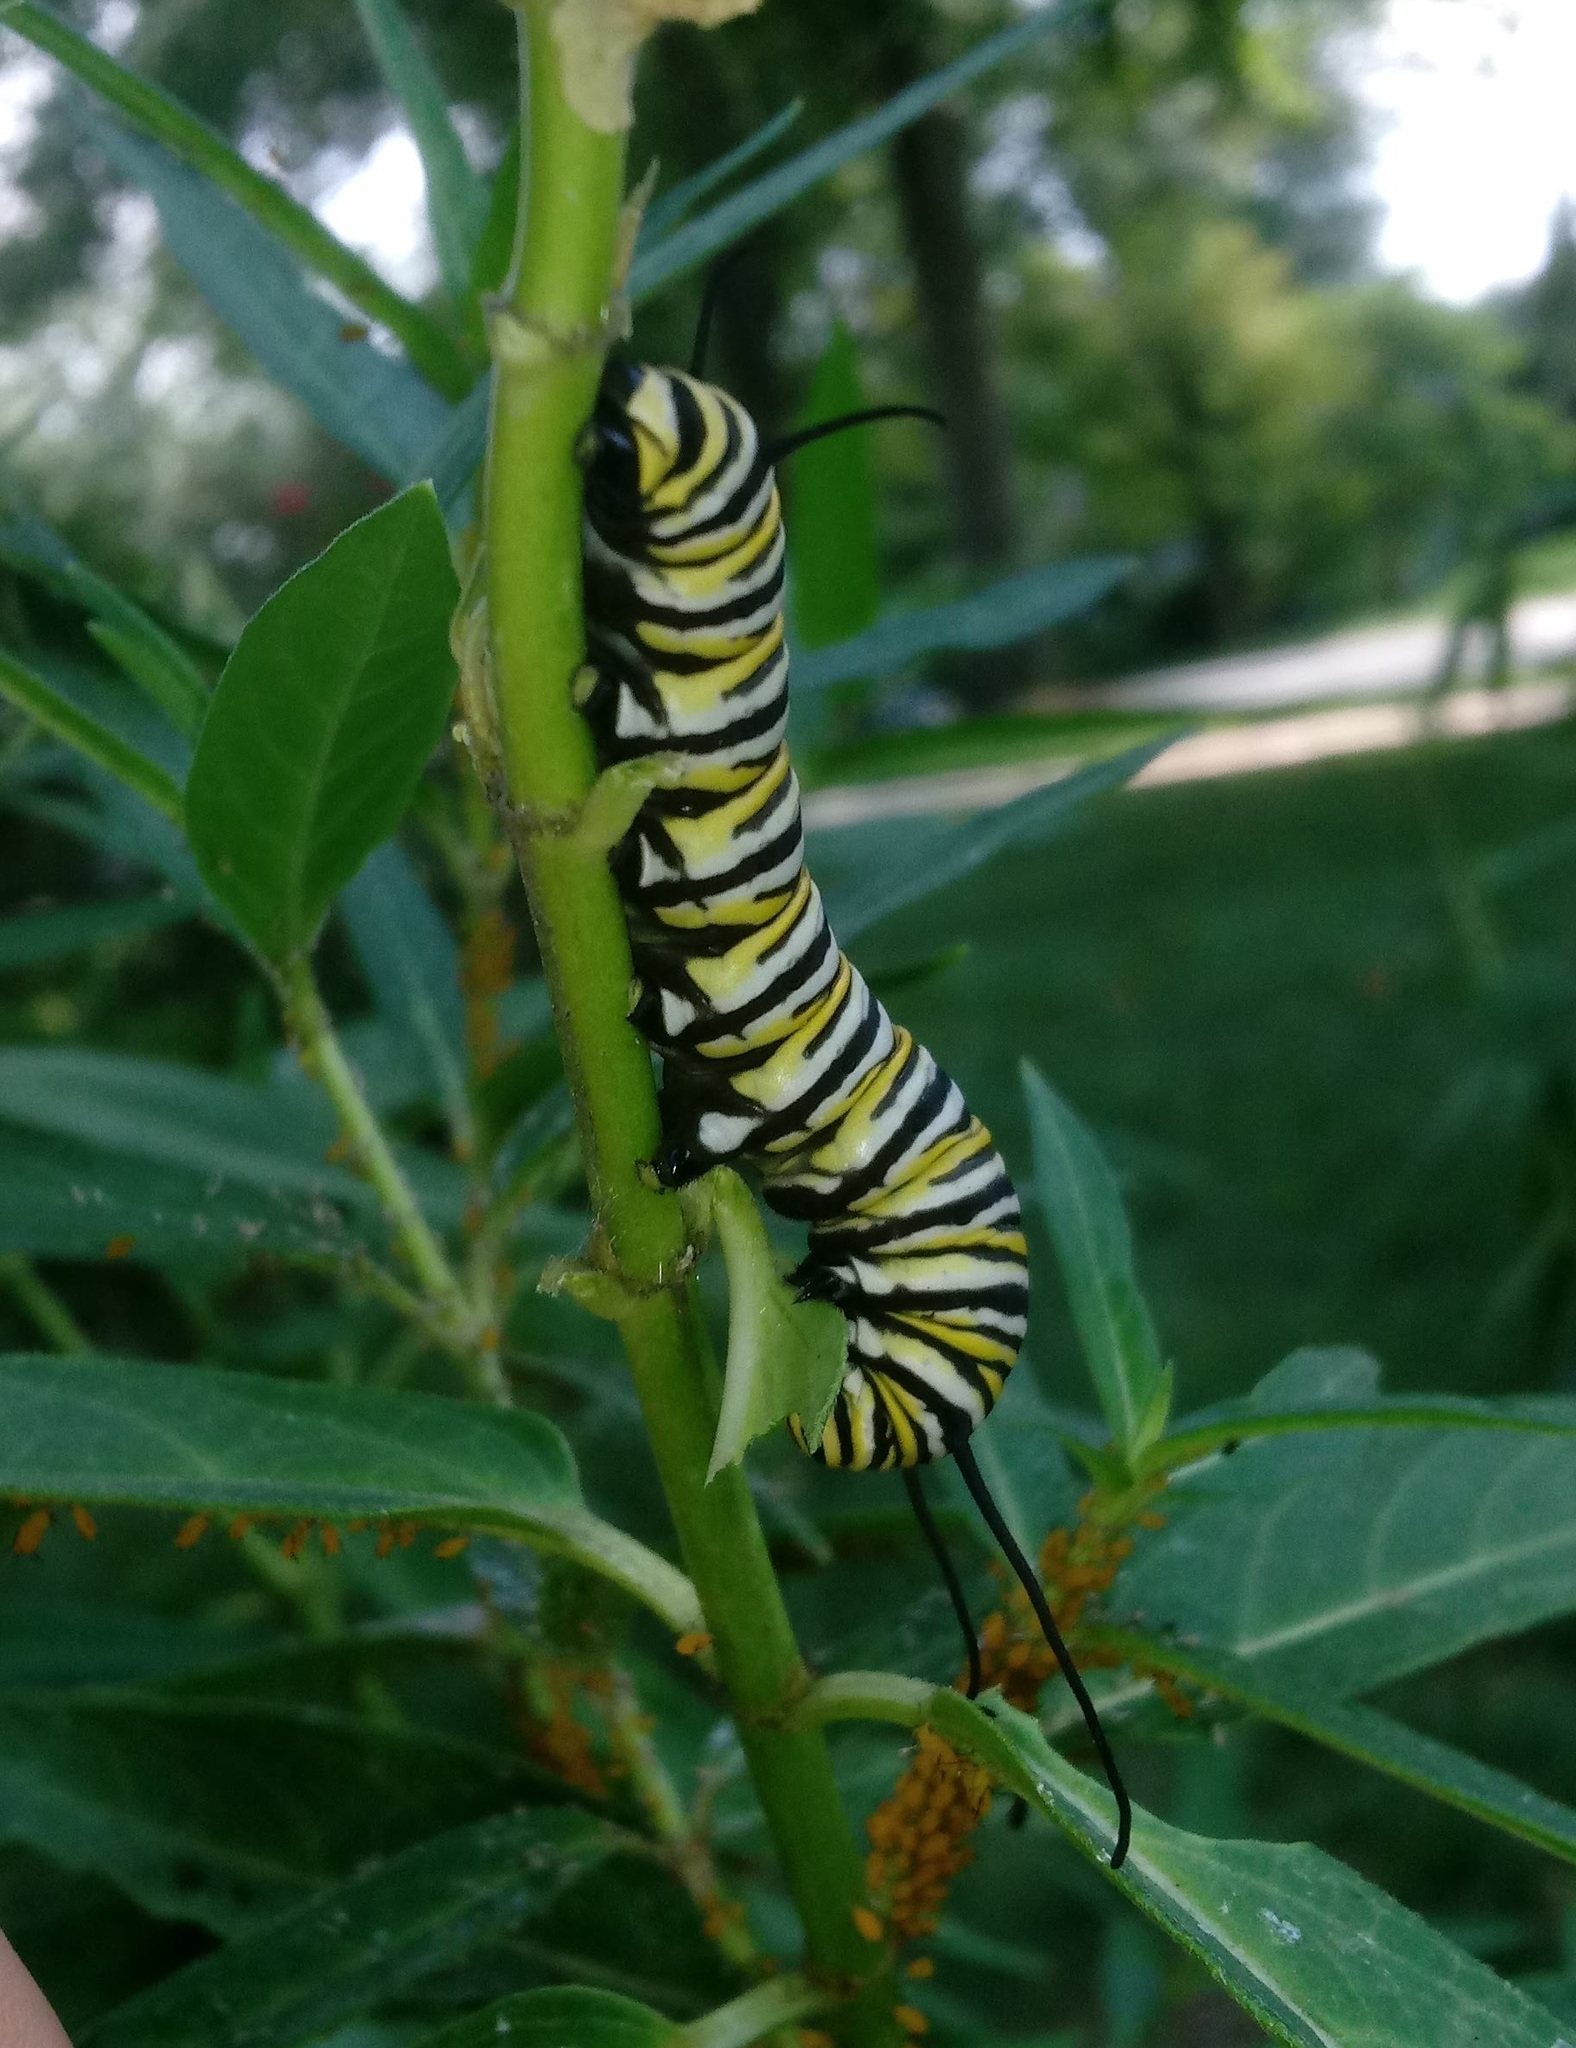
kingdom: Animalia
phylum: Arthropoda
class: Insecta
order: Lepidoptera
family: Nymphalidae
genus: Danaus
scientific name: Danaus plexippus
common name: Monarch
